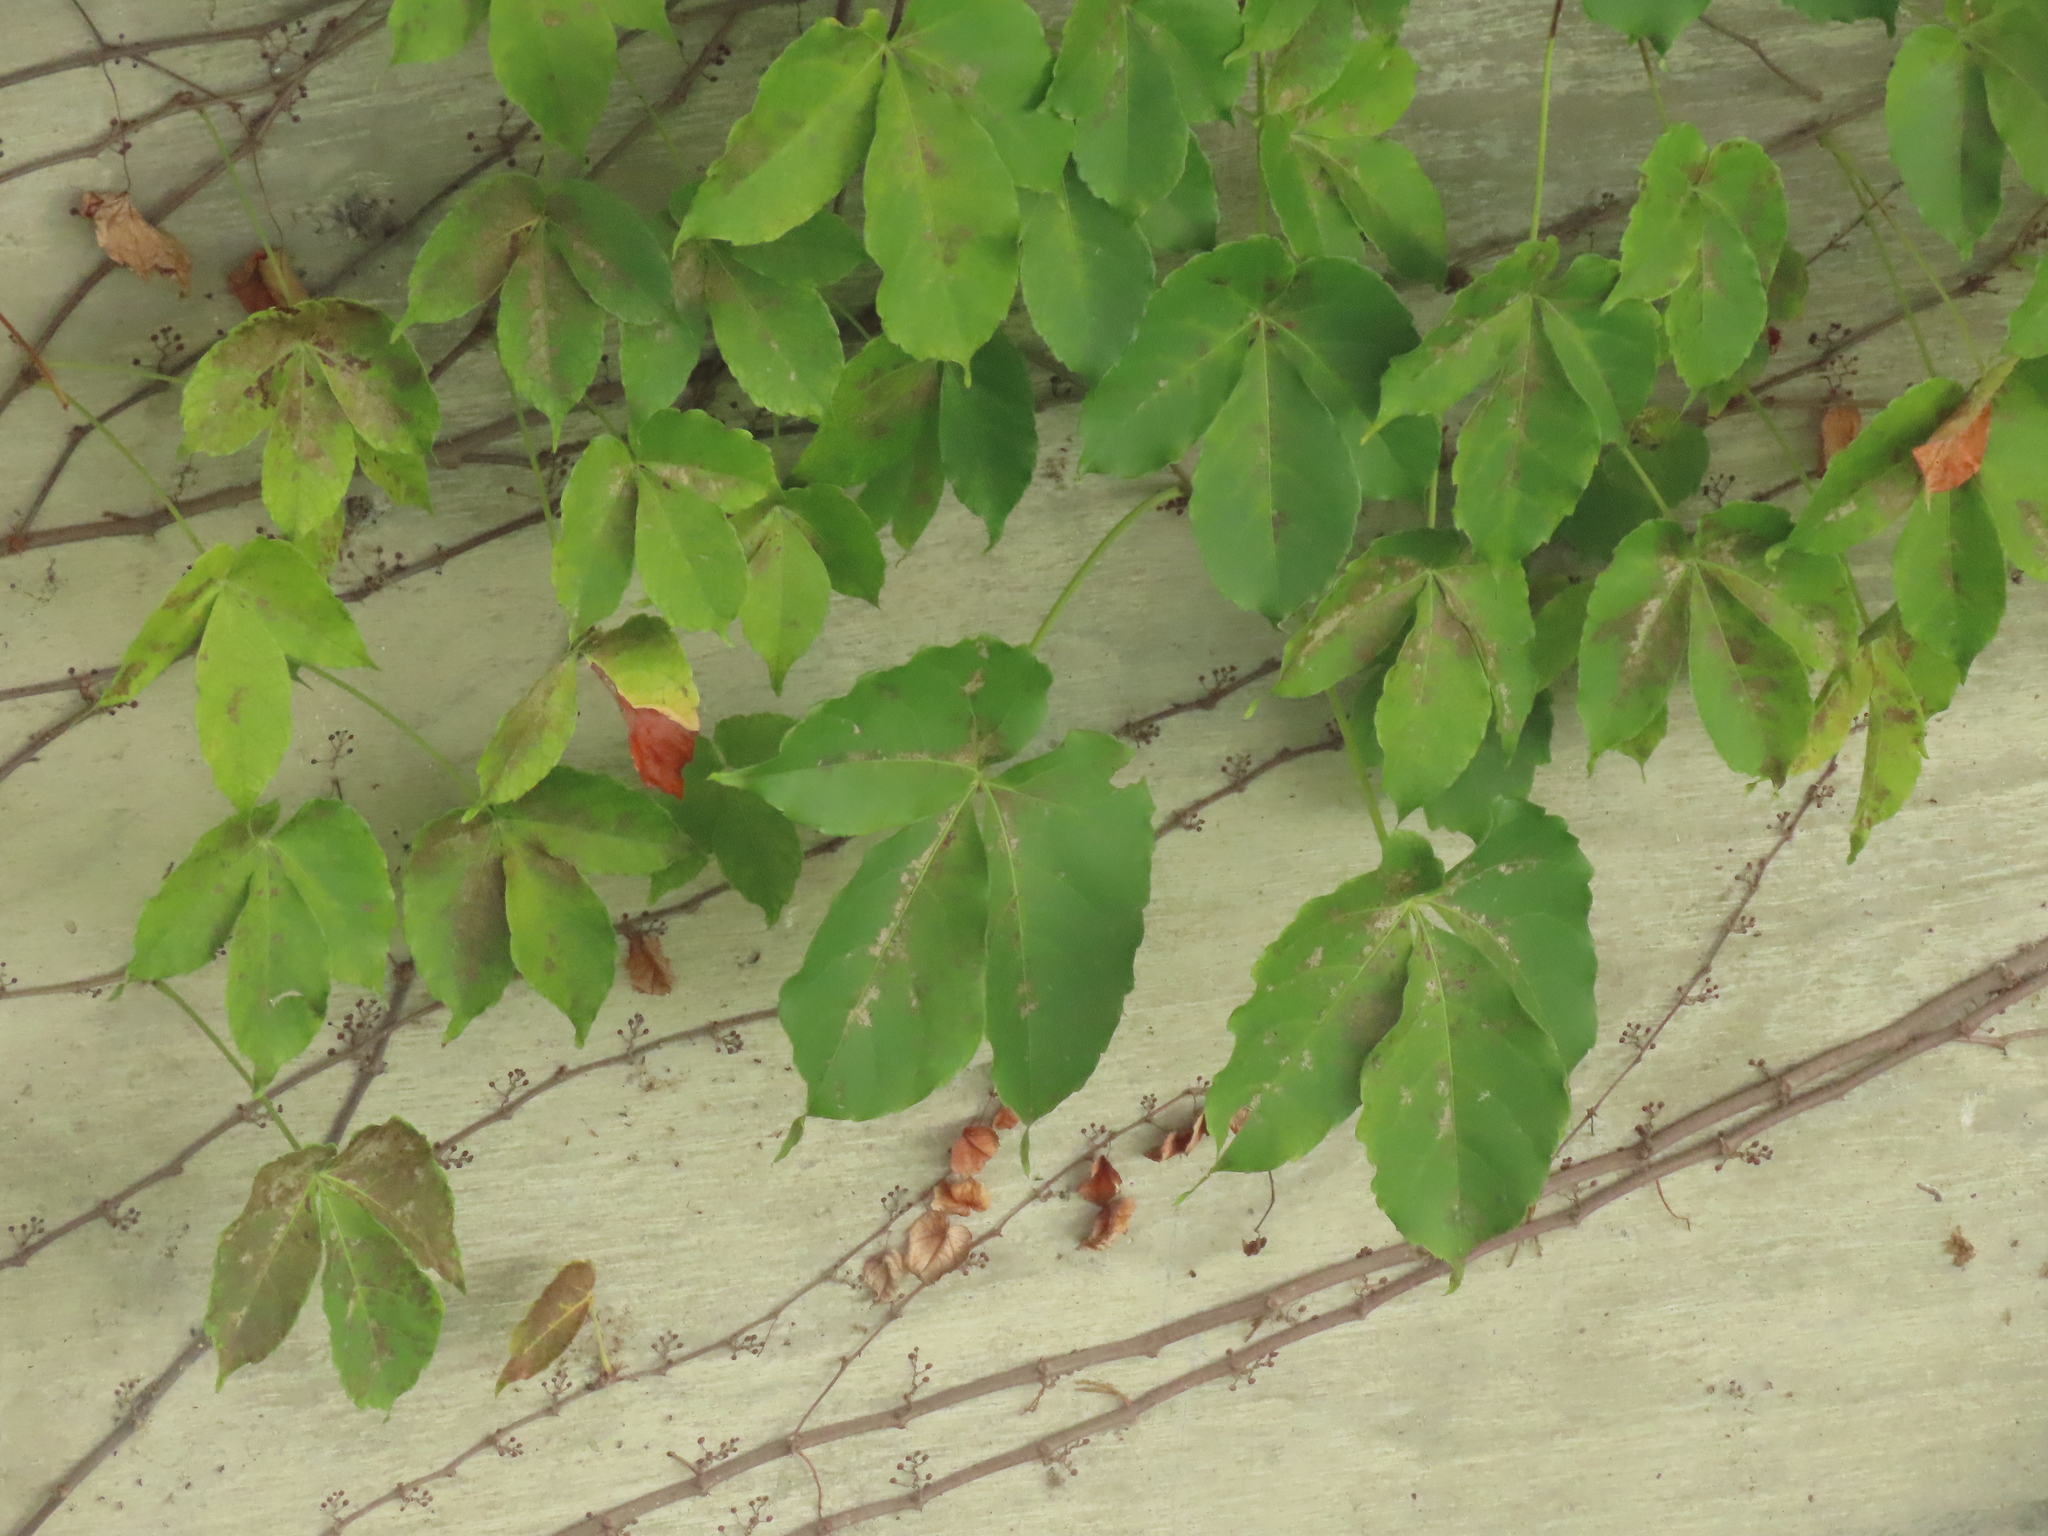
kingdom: Plantae
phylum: Tracheophyta
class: Magnoliopsida
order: Vitales
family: Vitaceae
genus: Parthenocissus
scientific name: Parthenocissus tricuspidata
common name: Boston ivy
